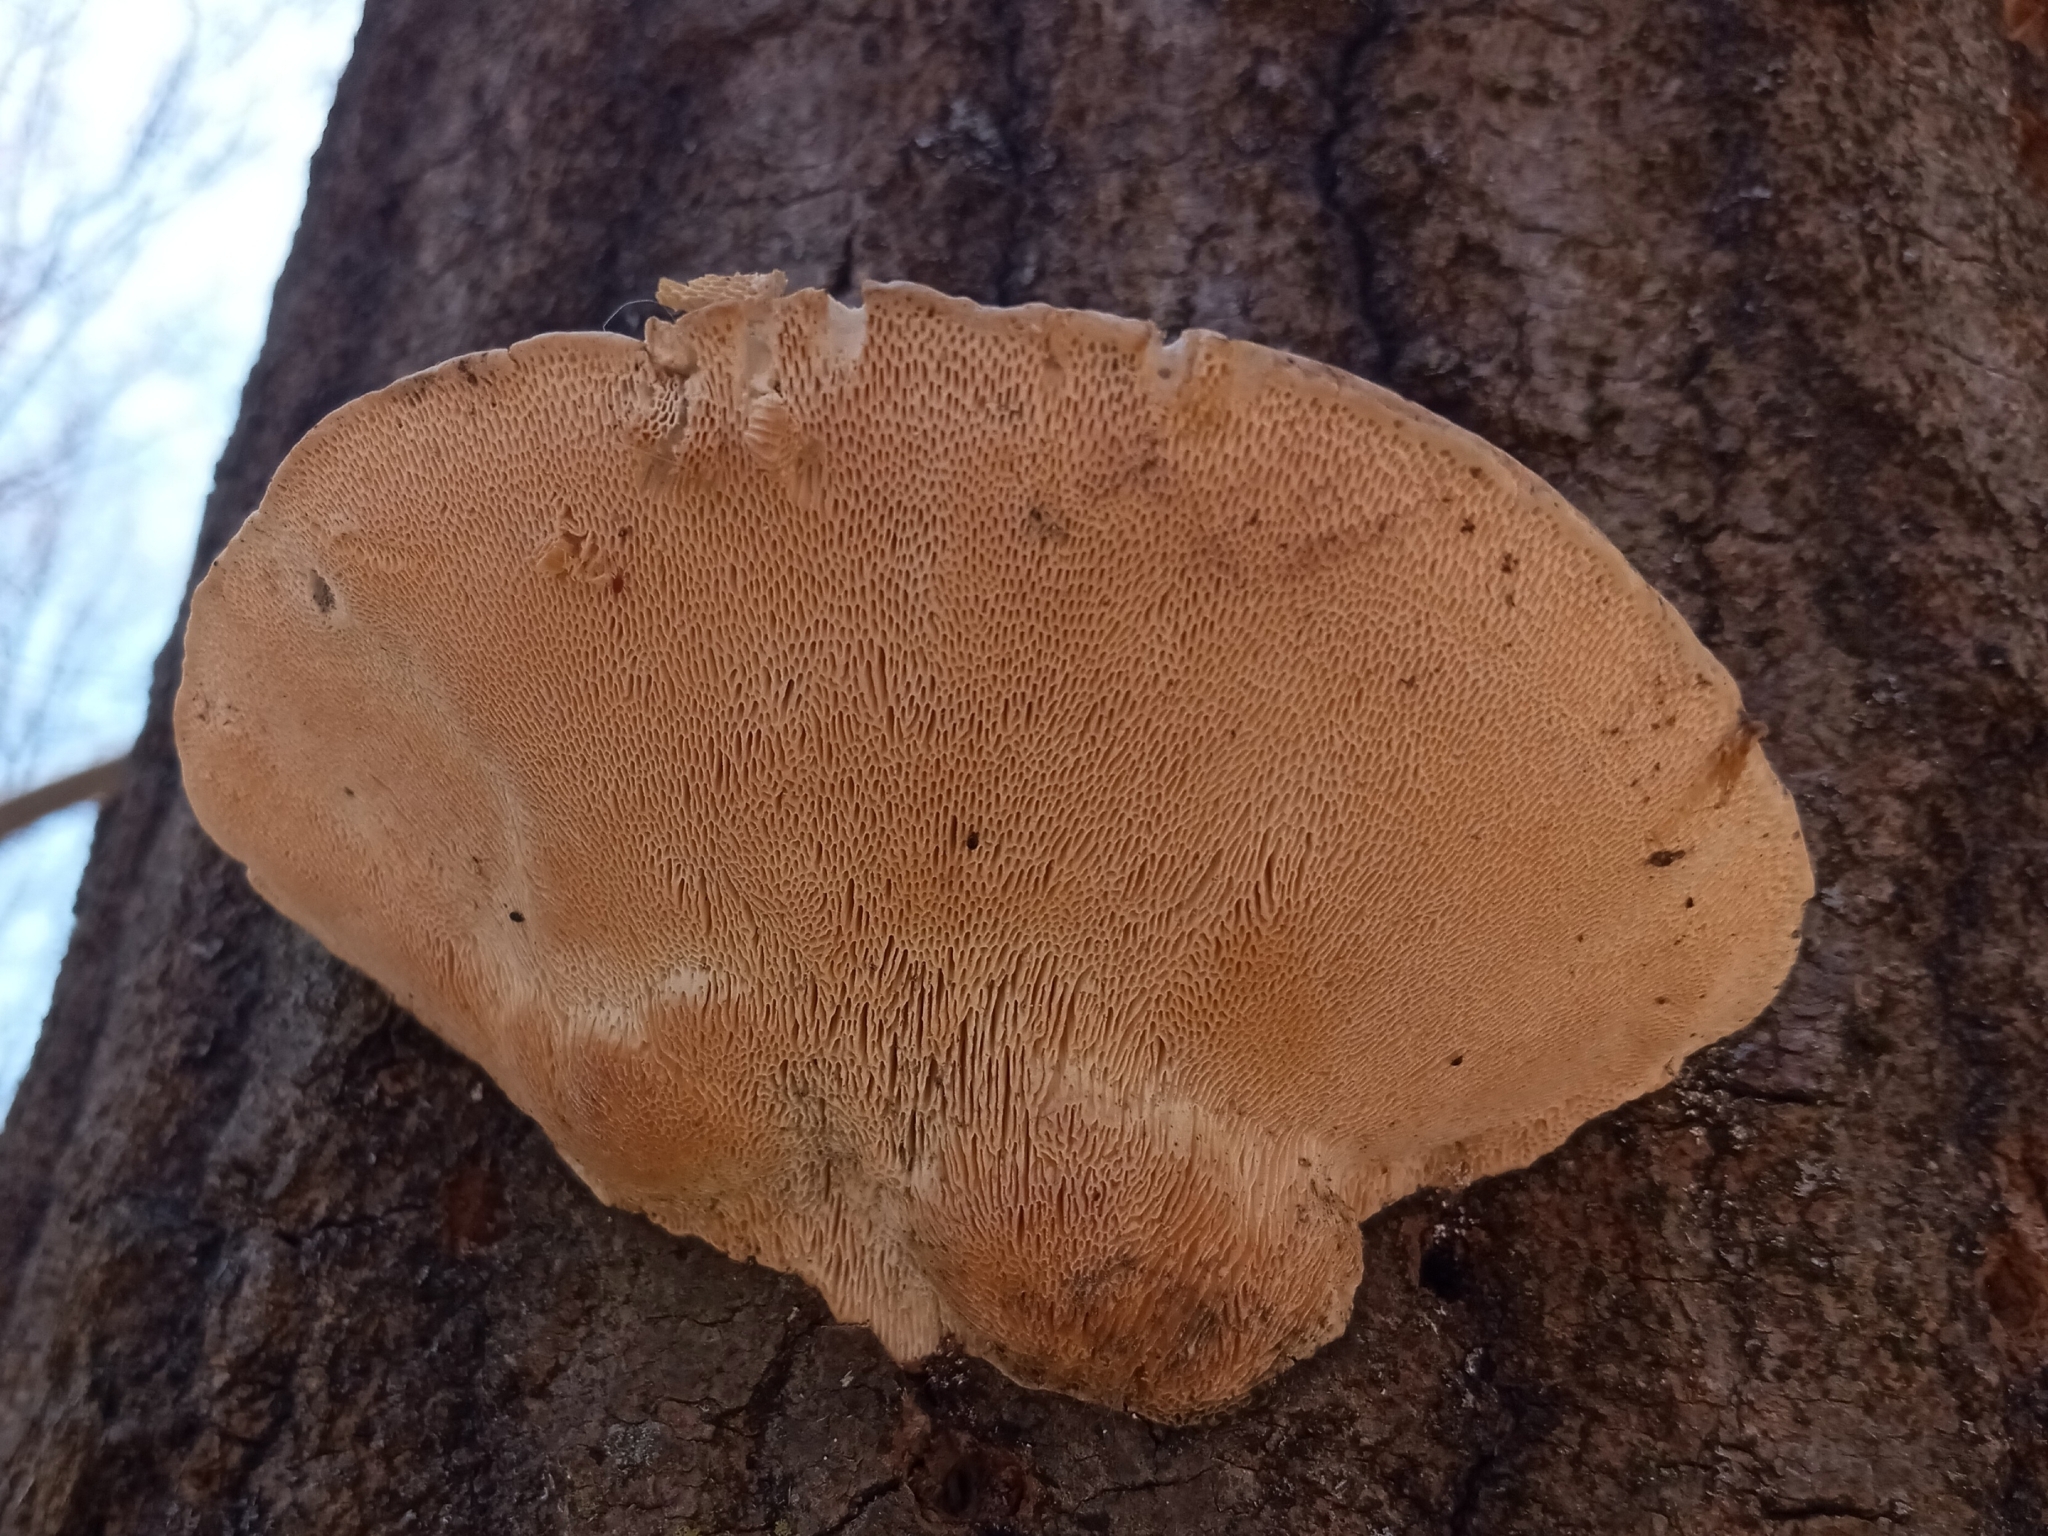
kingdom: Fungi
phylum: Basidiomycota
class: Agaricomycetes
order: Polyporales
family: Polyporaceae
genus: Trametes
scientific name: Trametes gibbosa
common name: Lumpy bracket
